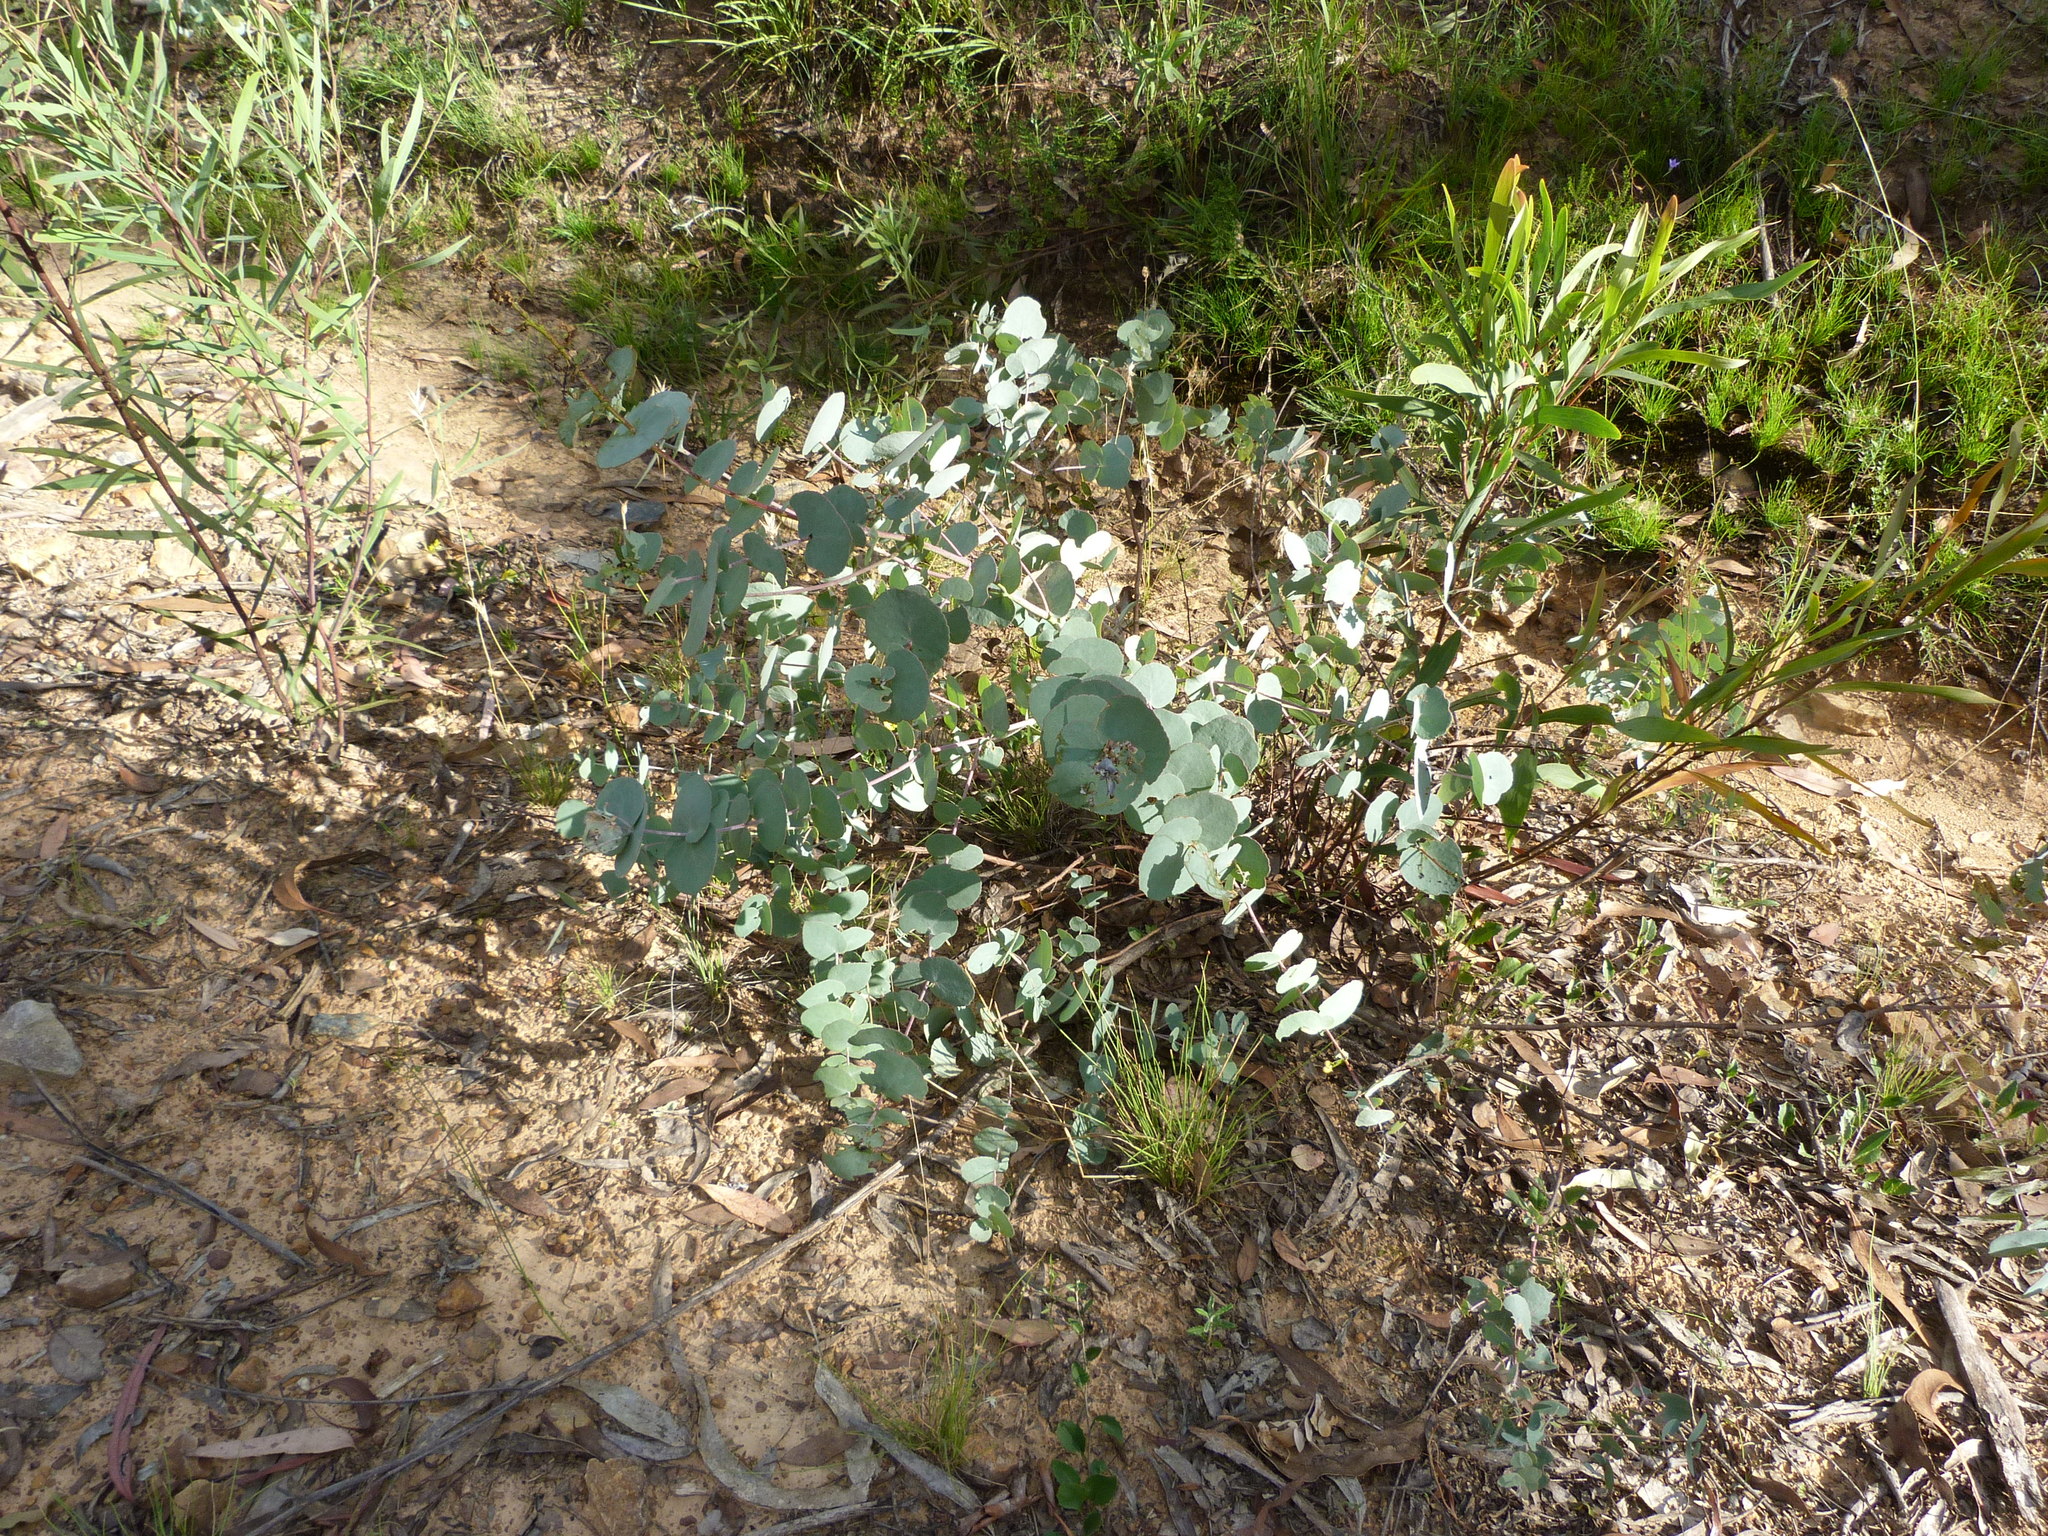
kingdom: Plantae
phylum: Tracheophyta
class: Magnoliopsida
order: Myrtales
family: Myrtaceae
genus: Eucalyptus
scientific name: Eucalyptus bridgesiana
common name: Applebox
